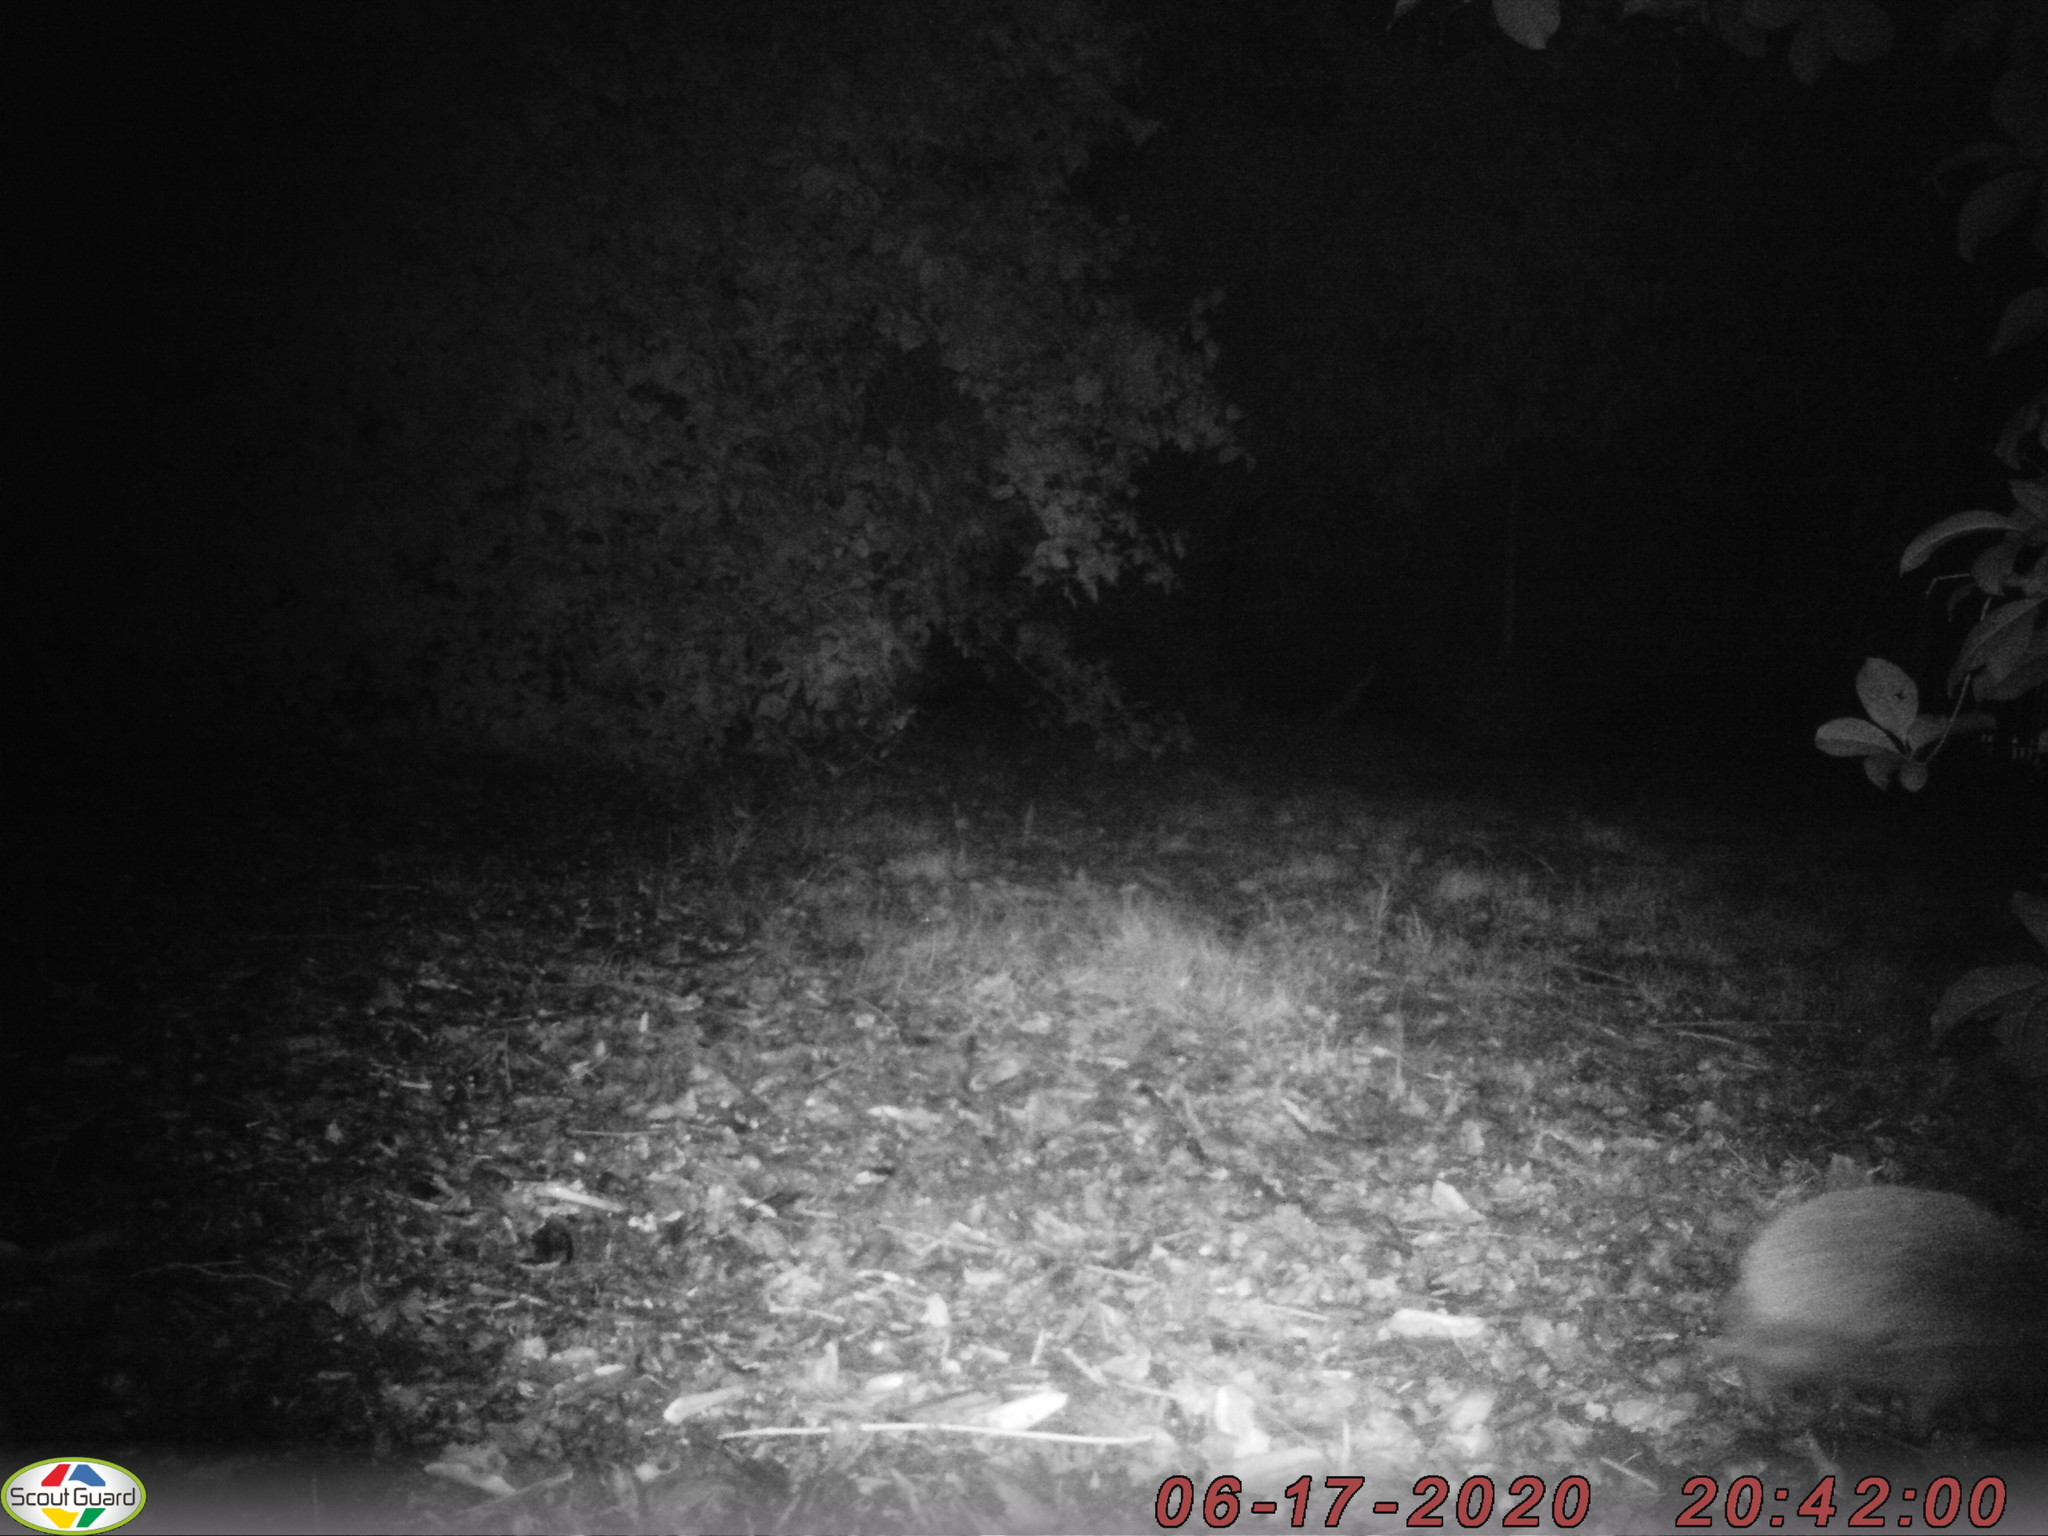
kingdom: Animalia
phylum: Chordata
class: Mammalia
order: Erinaceomorpha
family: Erinaceidae
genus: Erinaceus
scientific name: Erinaceus europaeus
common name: West european hedgehog
